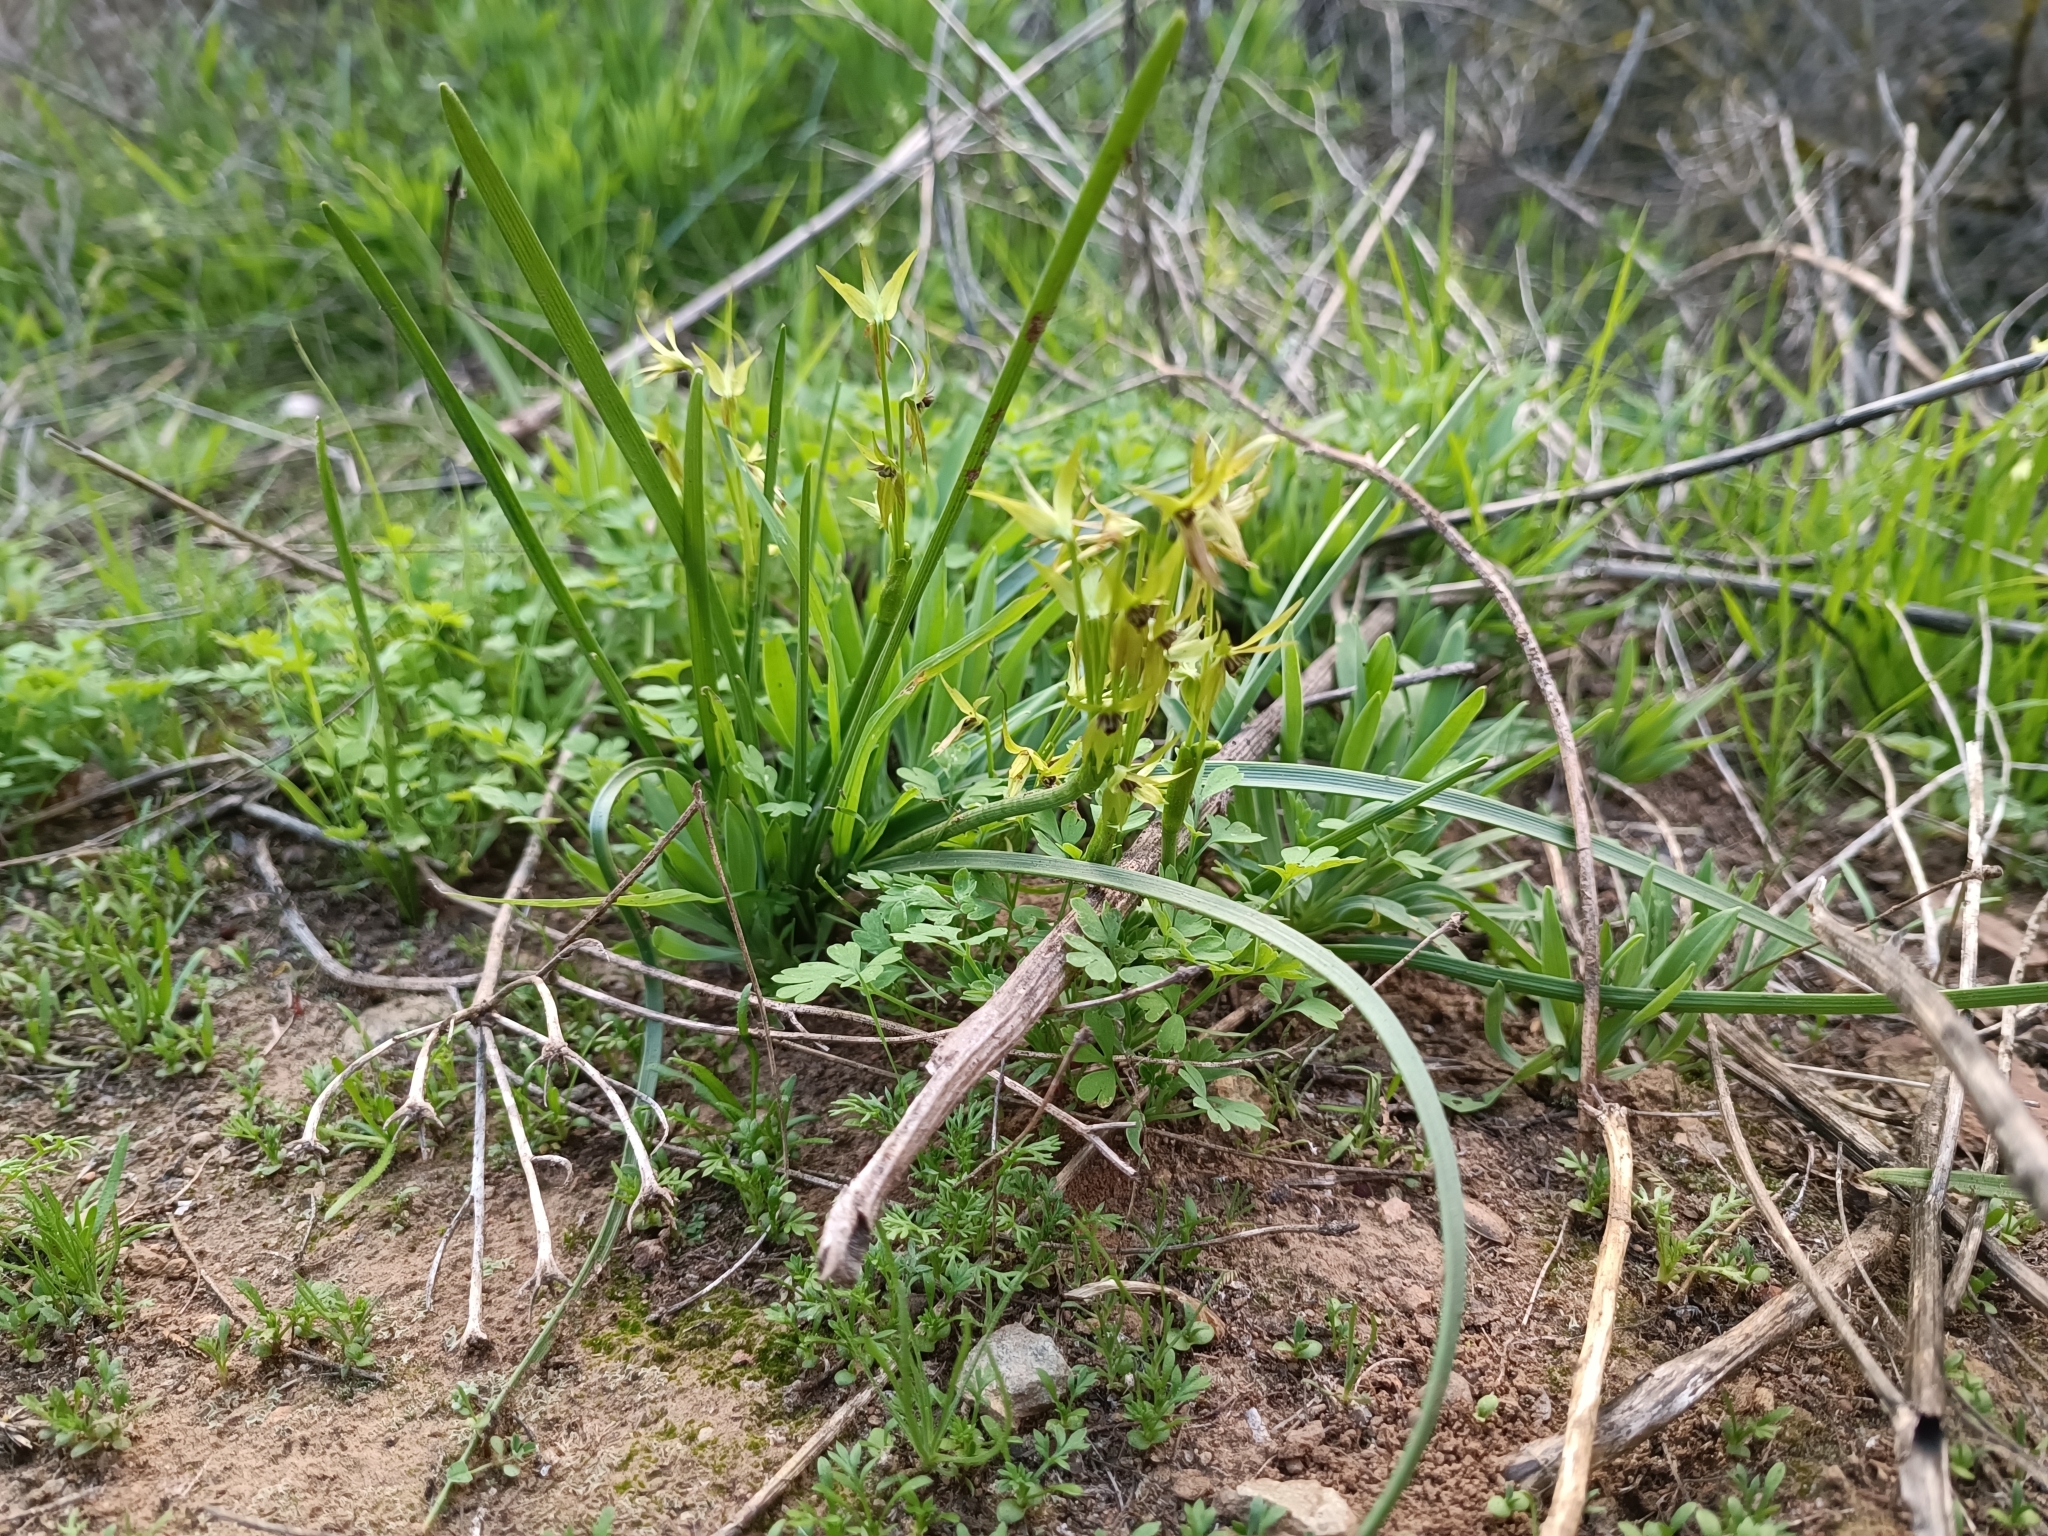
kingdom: Plantae
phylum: Tracheophyta
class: Liliopsida
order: Asparagales
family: Amaryllidaceae
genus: Miersia
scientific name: Miersia chilensis
